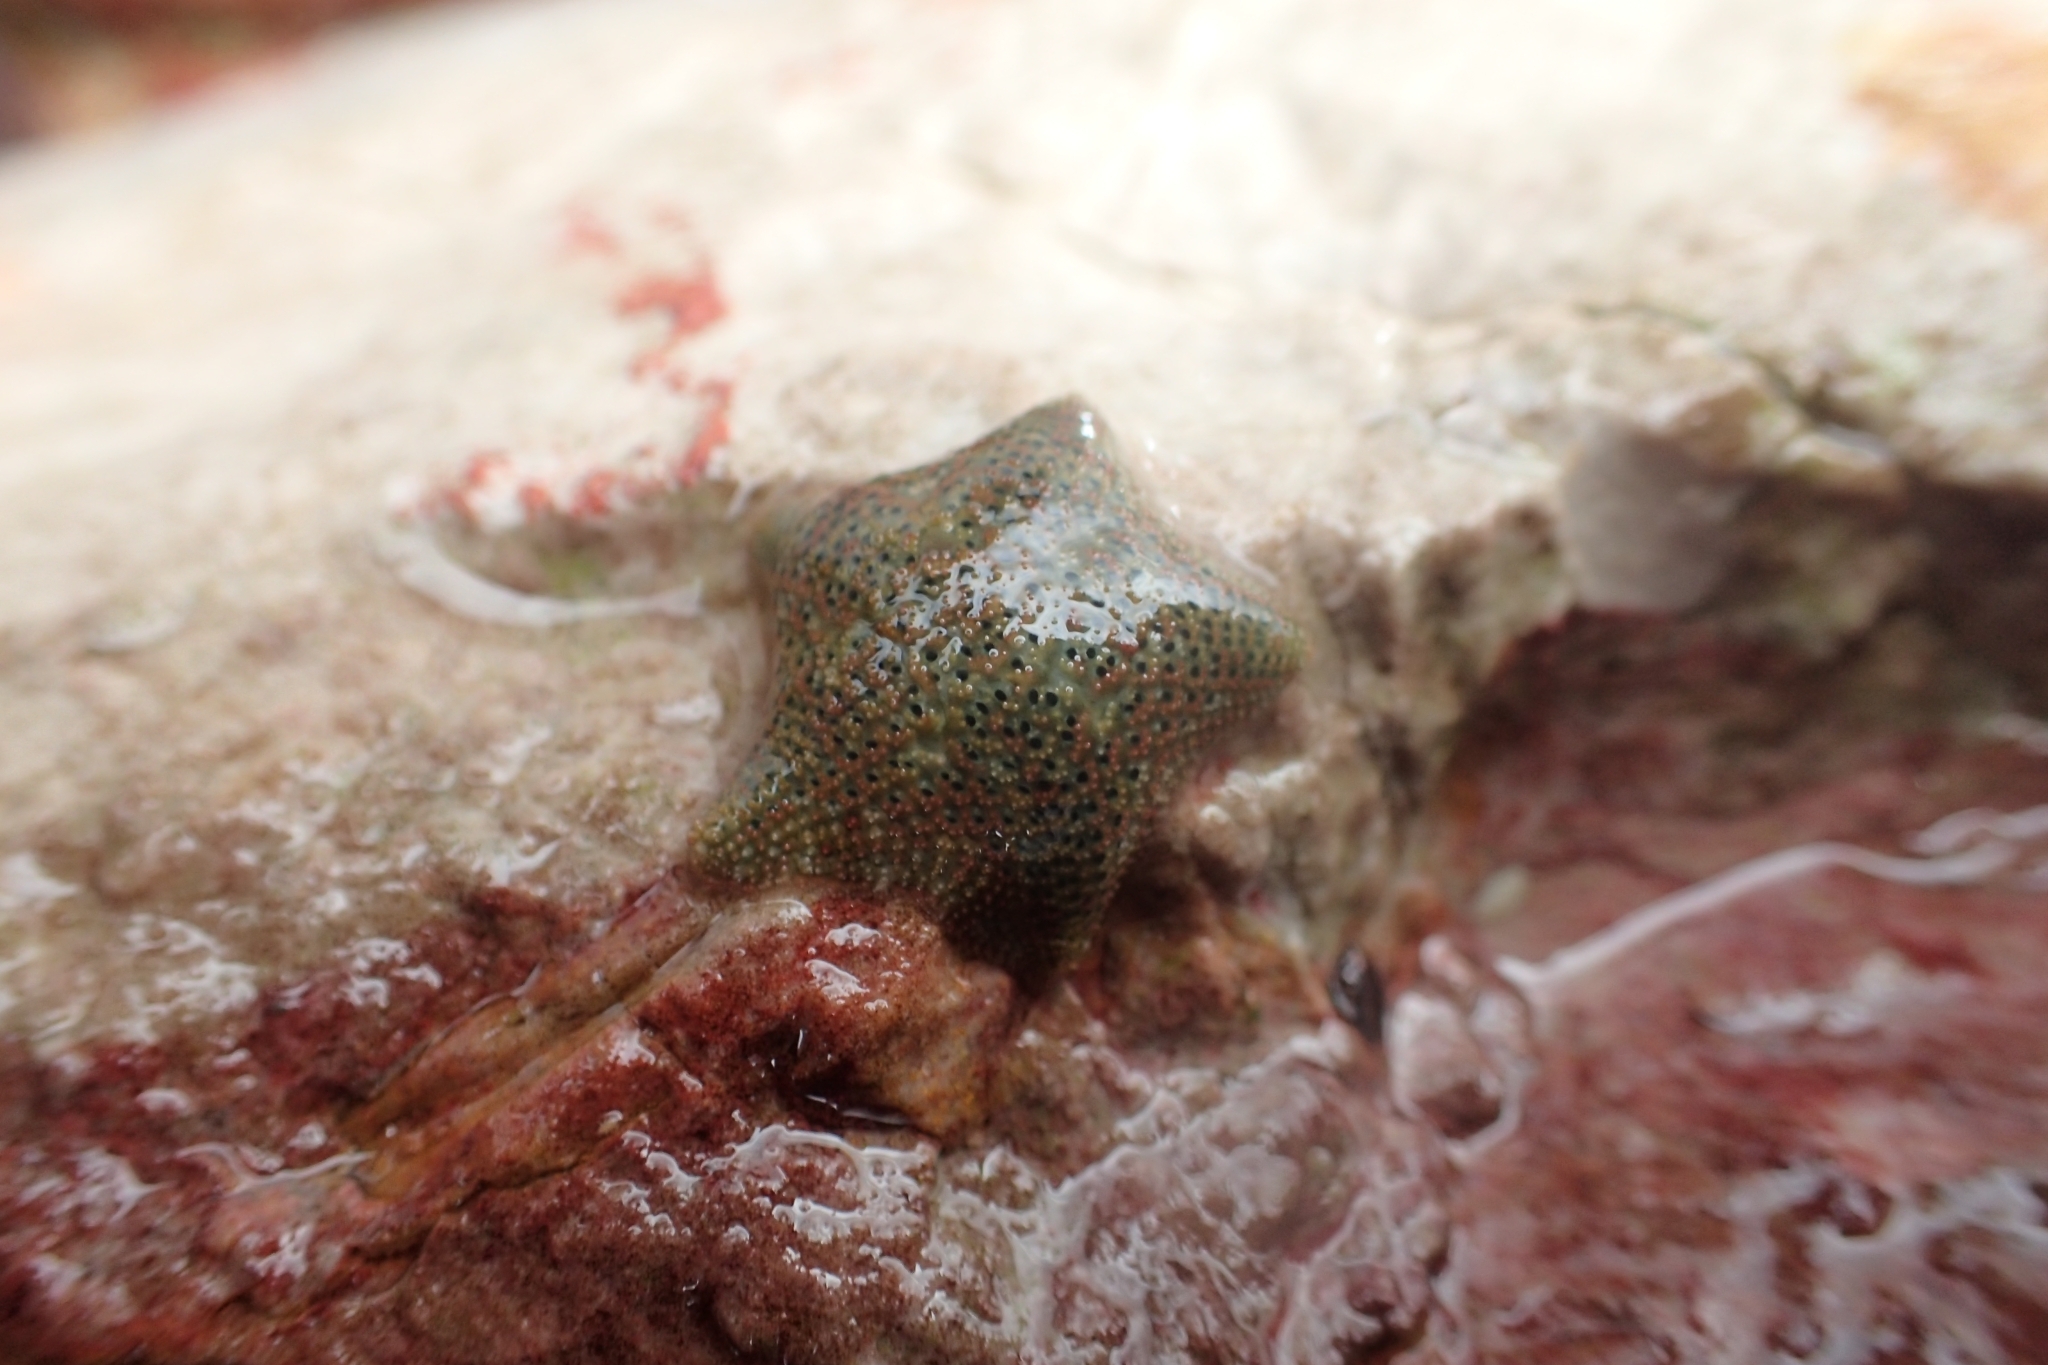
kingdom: Animalia
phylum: Echinodermata
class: Asteroidea
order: Valvatida
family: Asterinidae
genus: Parvulastra
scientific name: Parvulastra exigua
